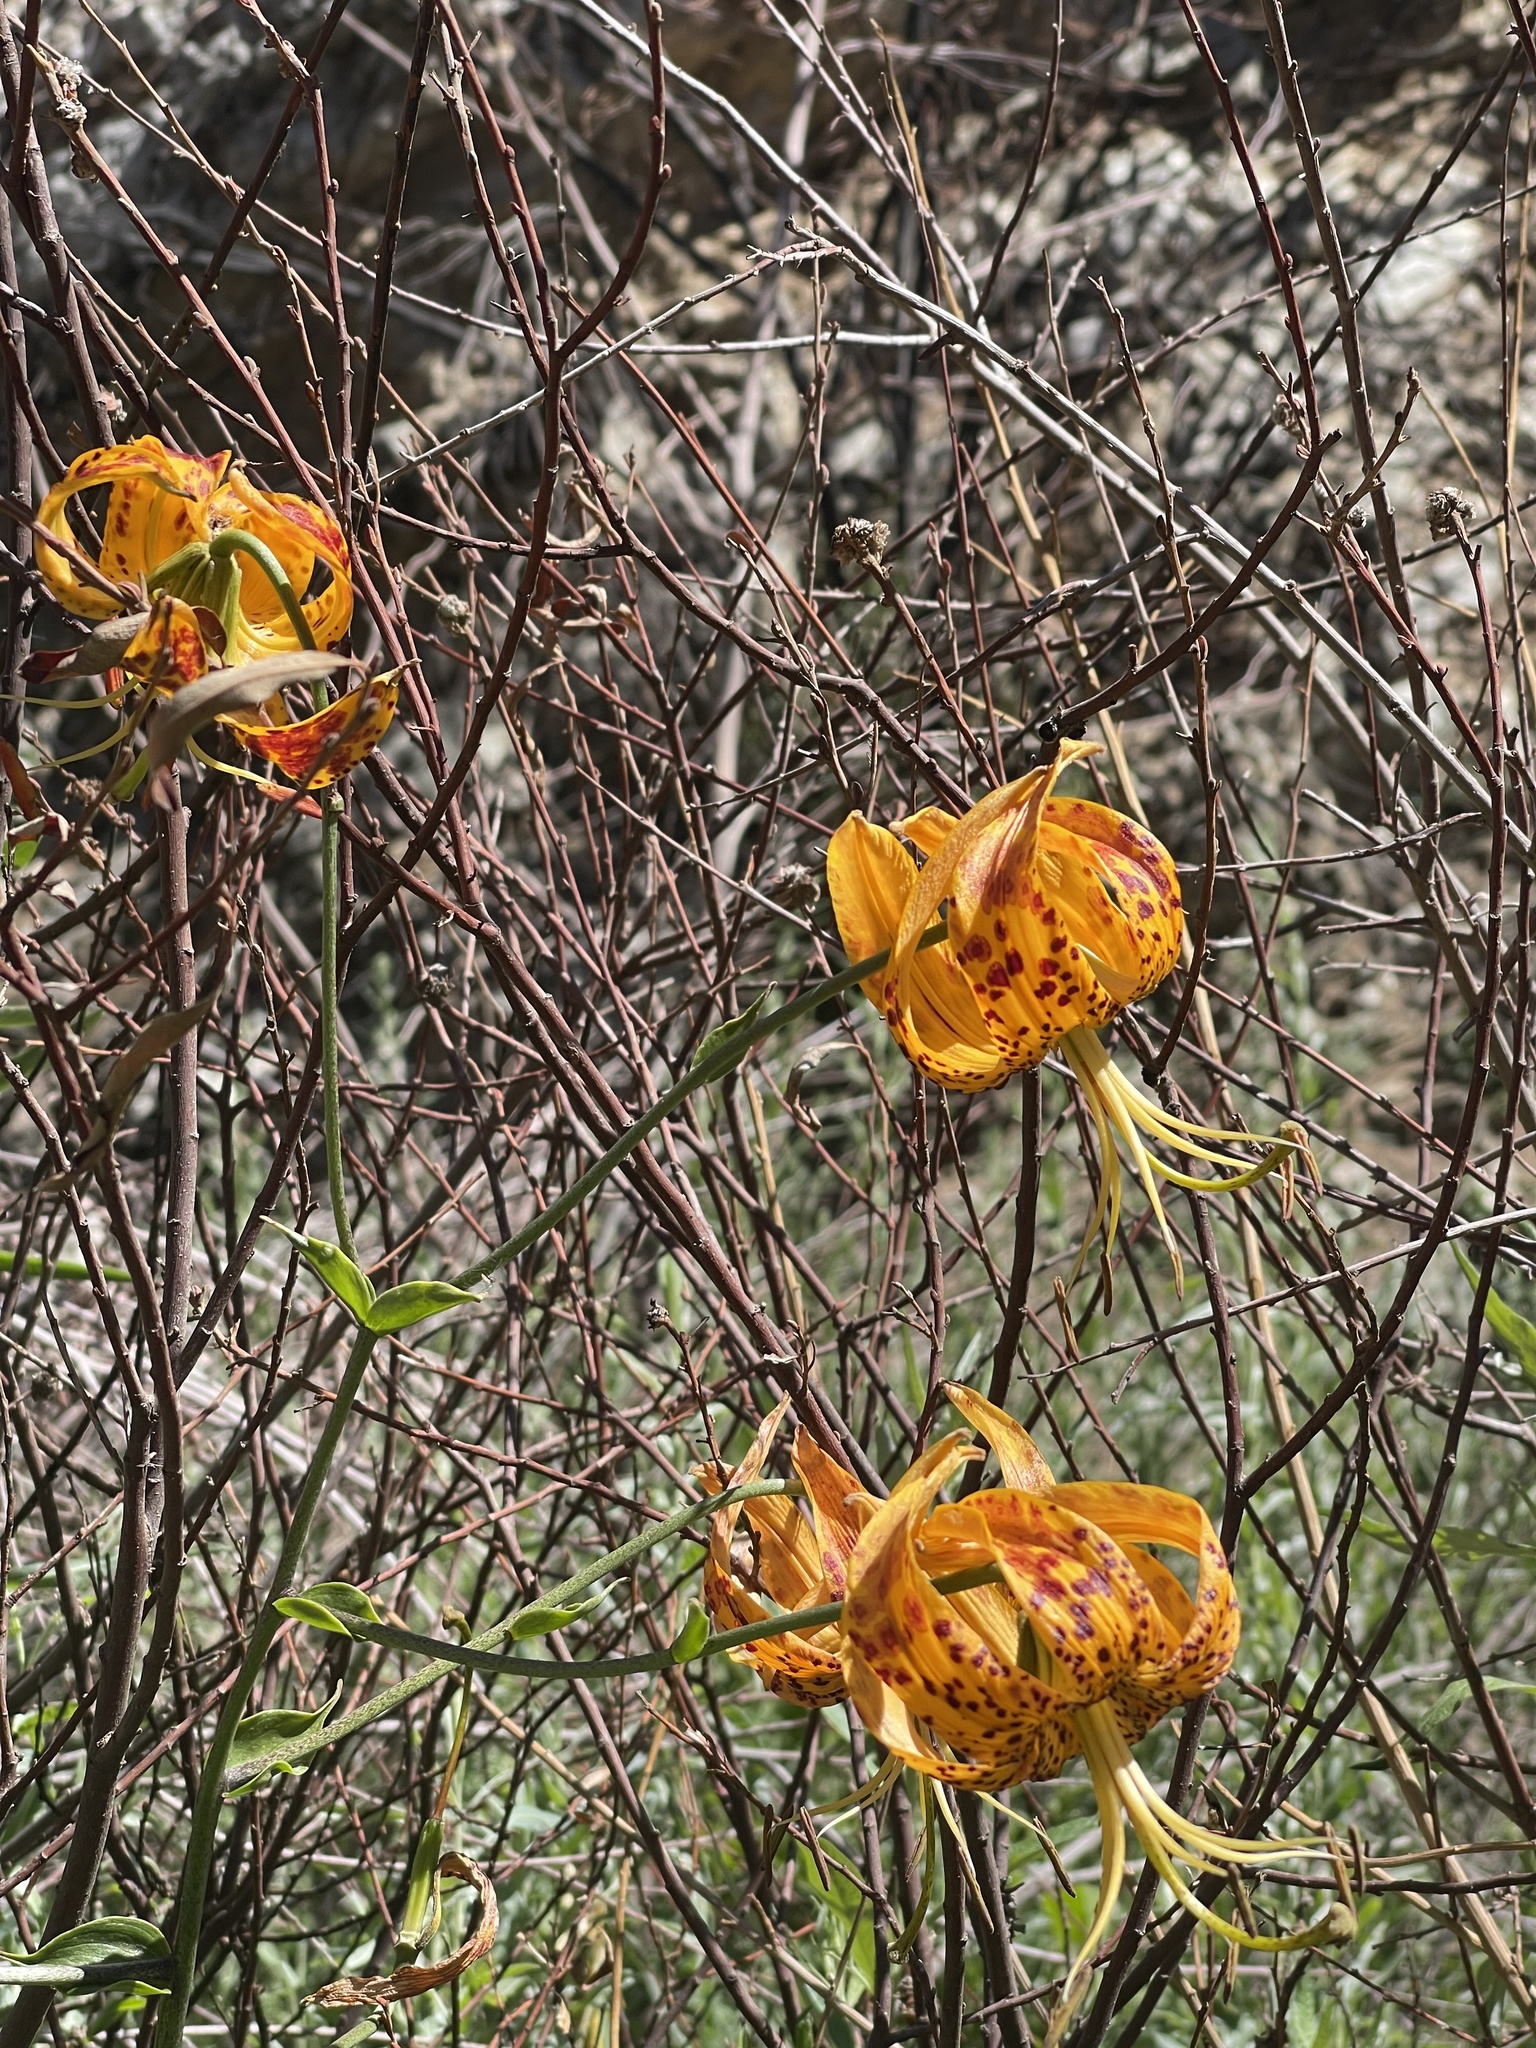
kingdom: Plantae
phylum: Tracheophyta
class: Liliopsida
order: Liliales
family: Liliaceae
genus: Lilium
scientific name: Lilium humboldtii
